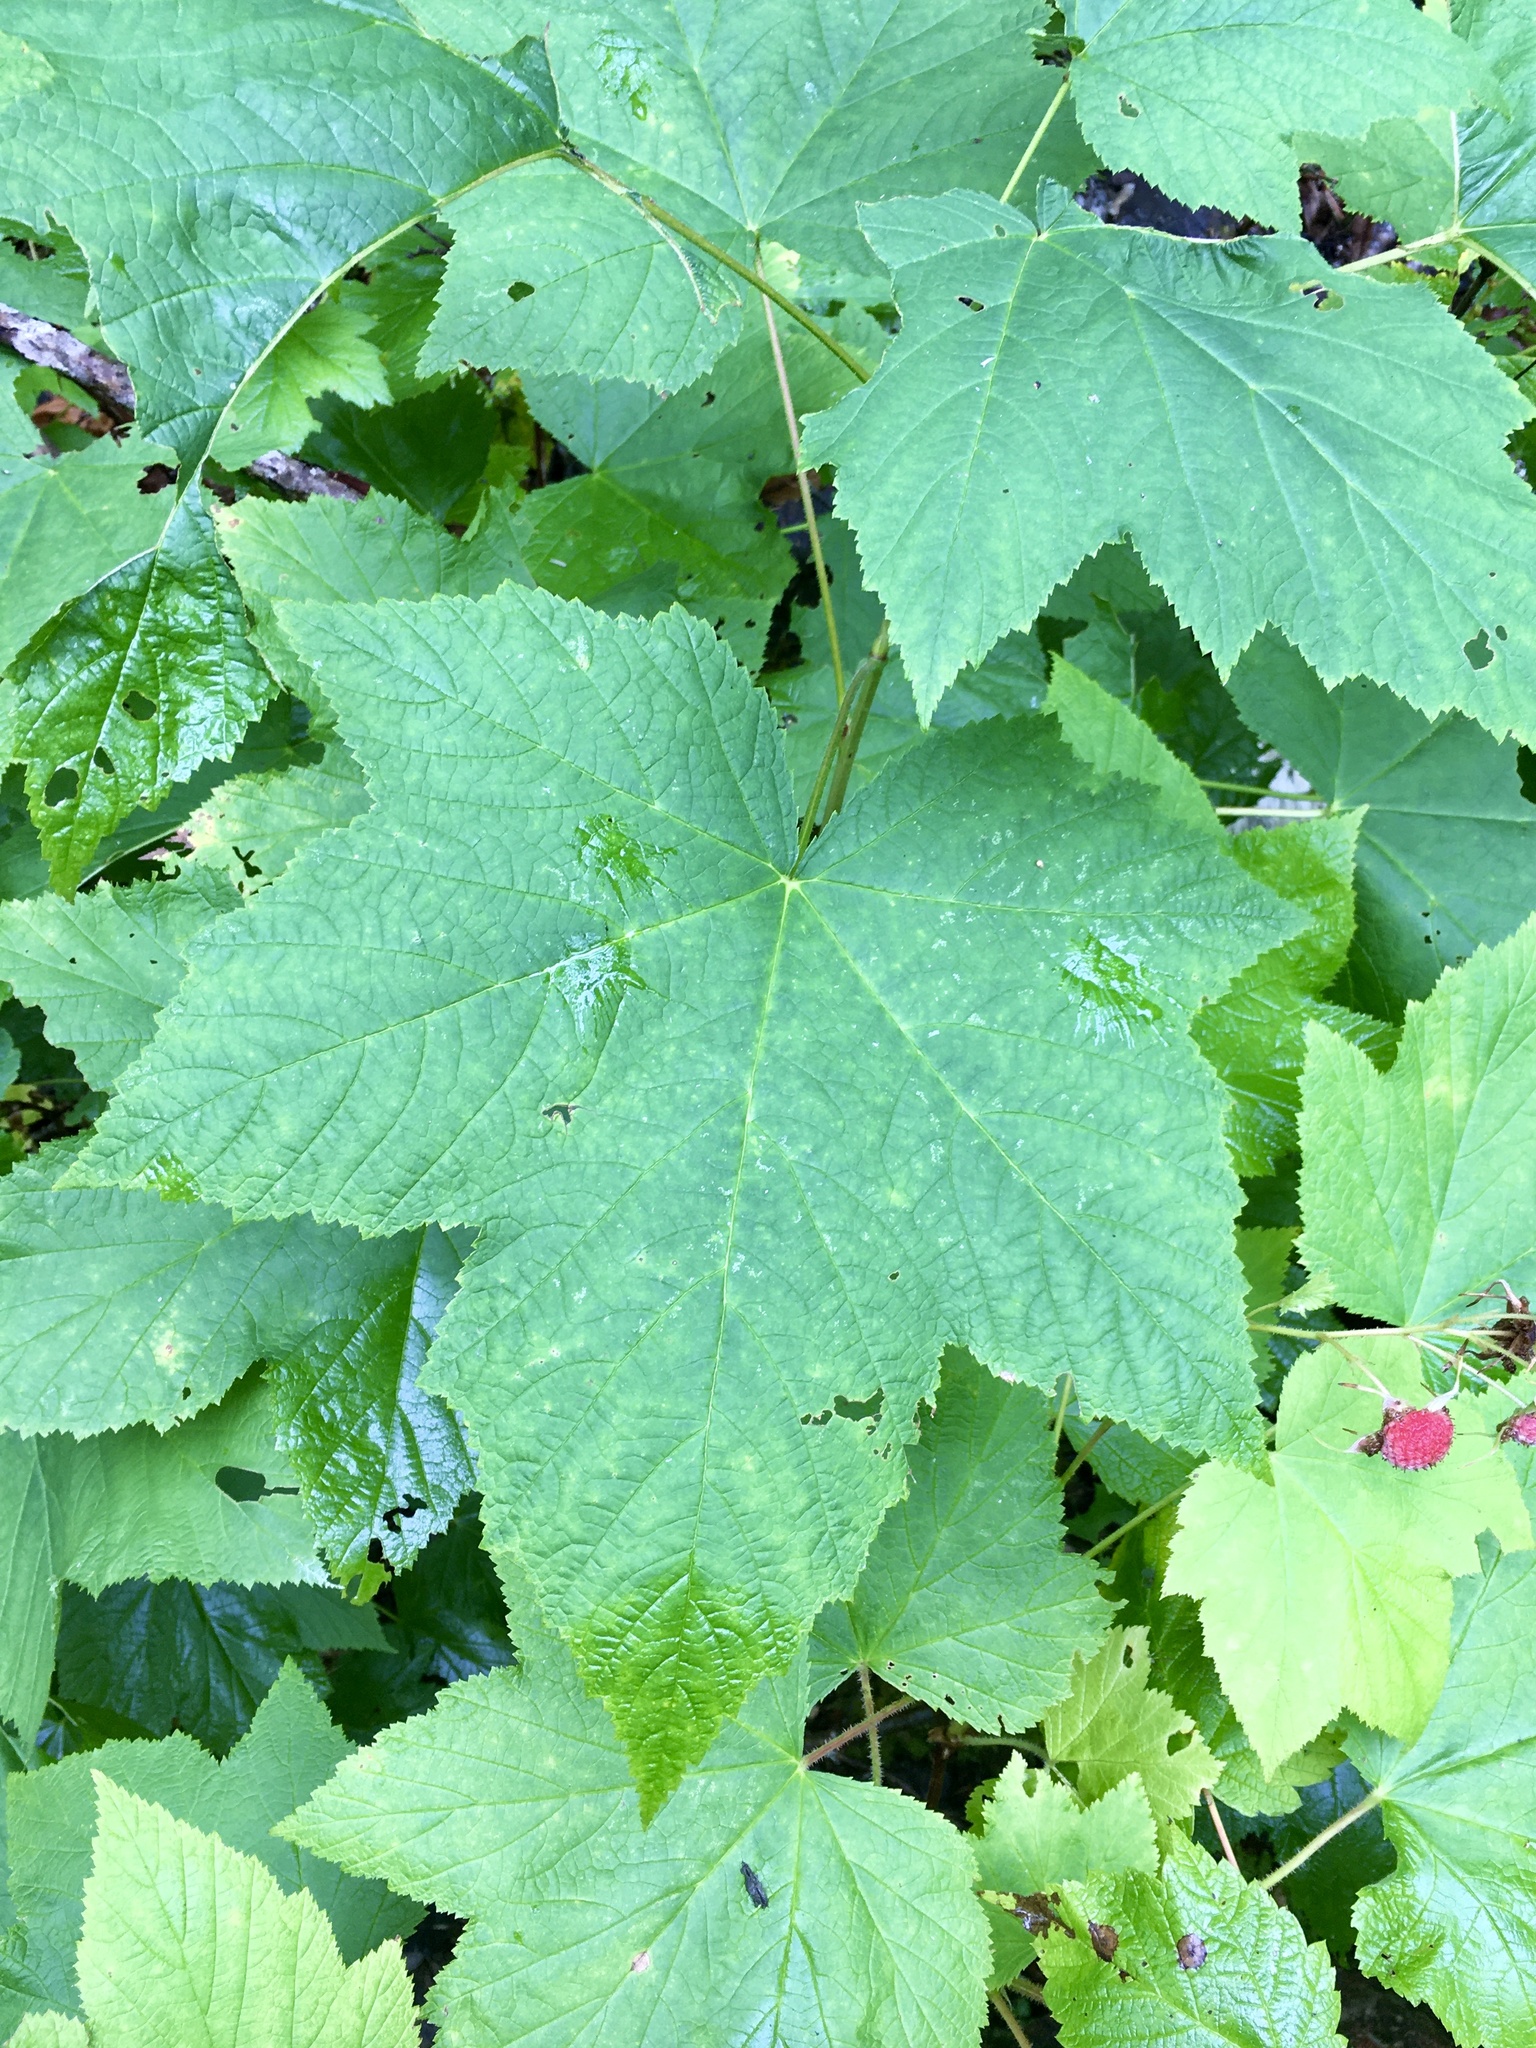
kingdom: Plantae
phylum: Tracheophyta
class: Magnoliopsida
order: Rosales
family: Rosaceae
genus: Rubus
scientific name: Rubus parviflorus
